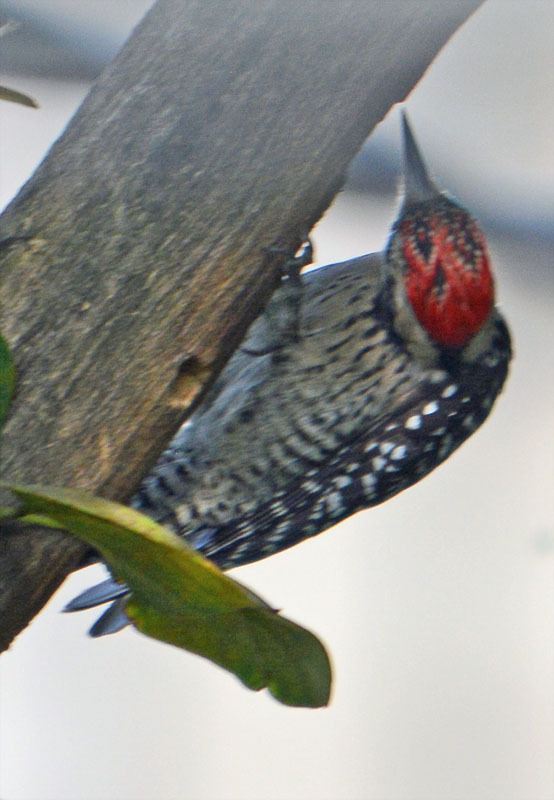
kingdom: Animalia
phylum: Chordata
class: Aves
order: Piciformes
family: Picidae
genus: Dryobates
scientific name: Dryobates scalaris
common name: Ladder-backed woodpecker
